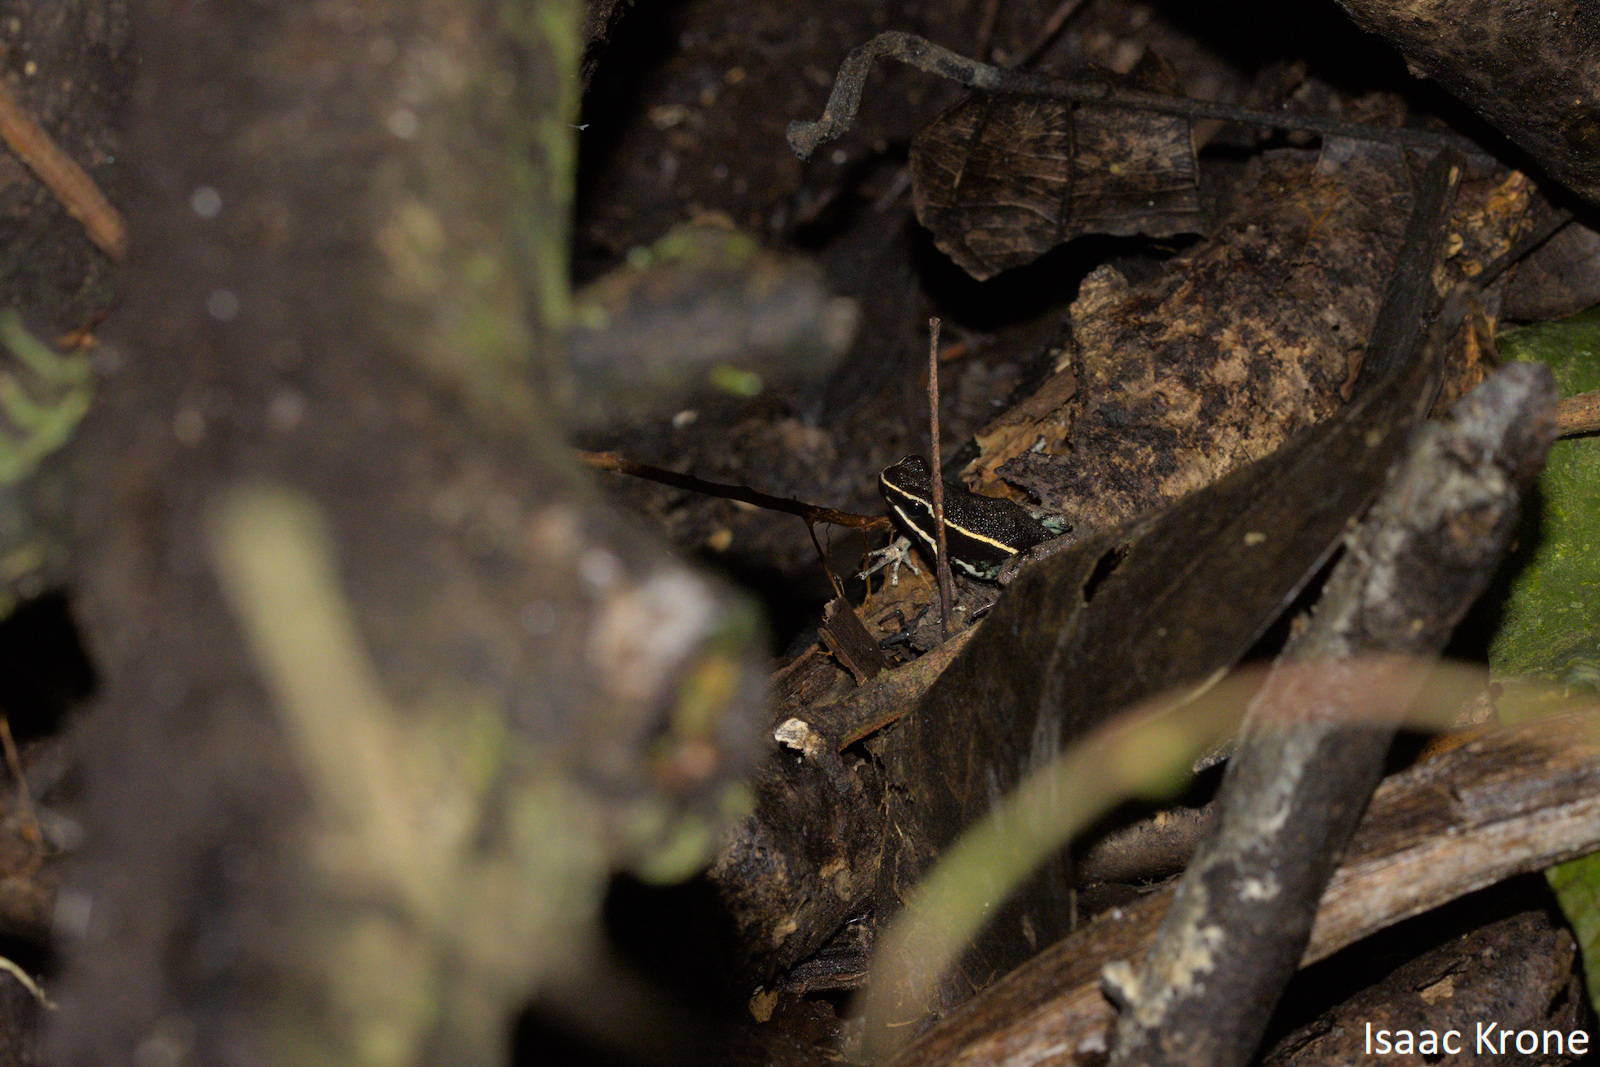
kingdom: Animalia
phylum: Chordata
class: Amphibia
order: Anura
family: Dendrobatidae
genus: Ameerega
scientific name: Ameerega hahneli
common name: Yurimaguas pioson frog
